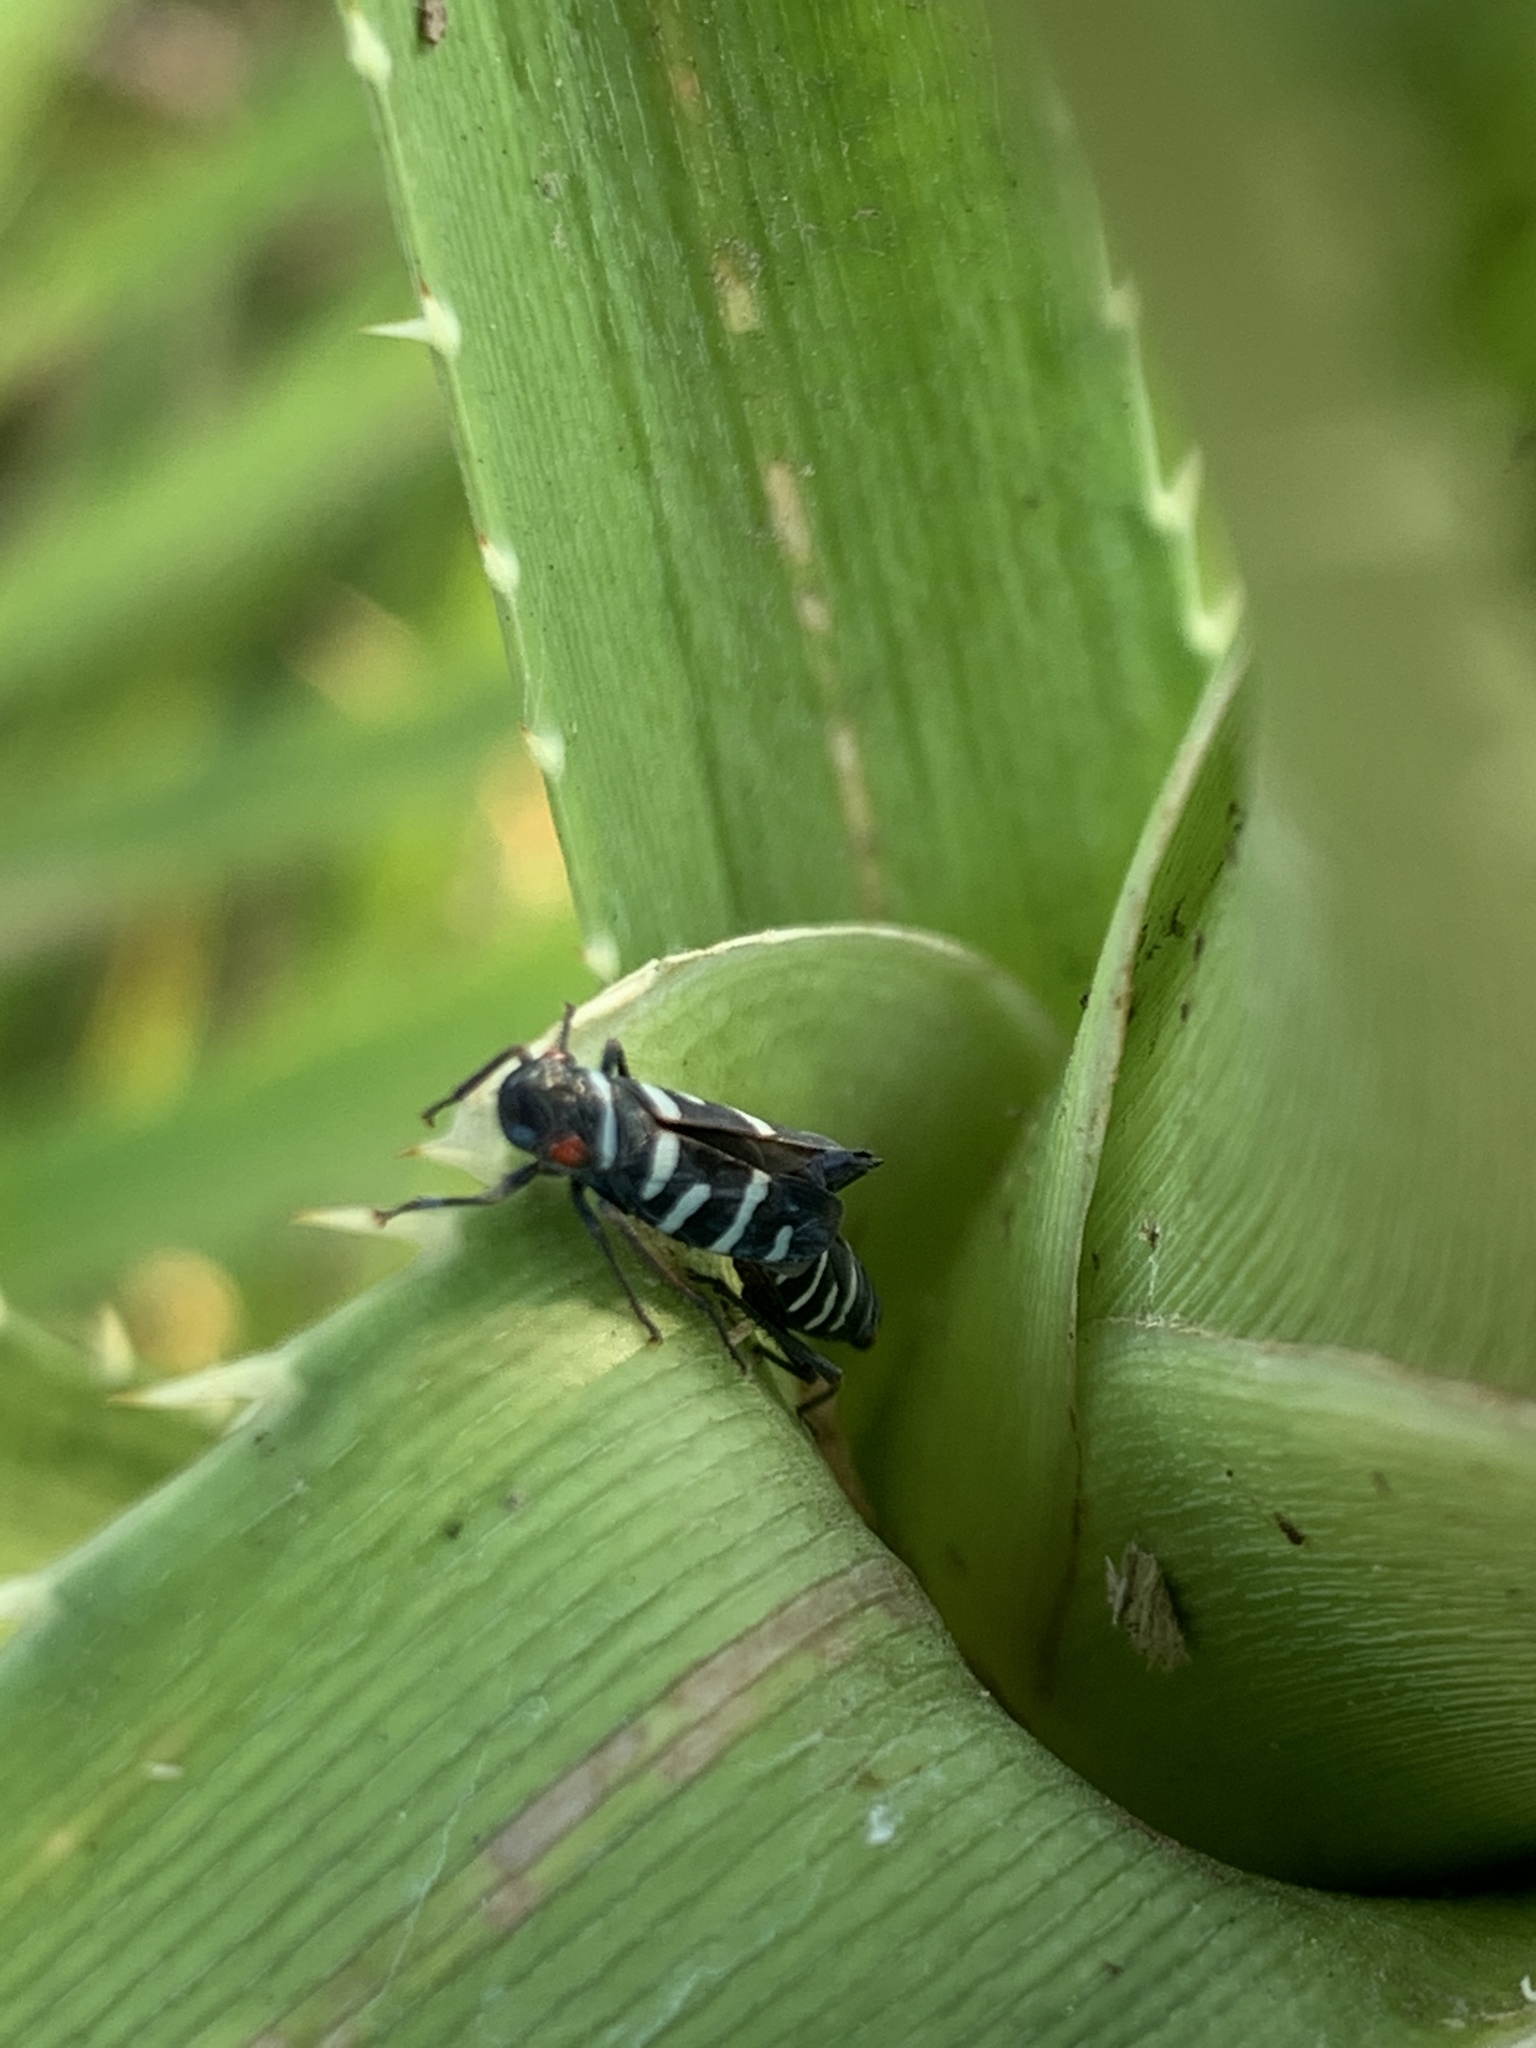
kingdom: Animalia
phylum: Arthropoda
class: Insecta
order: Hemiptera
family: Cicadellidae
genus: Balacha
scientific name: Balacha melanocephala
